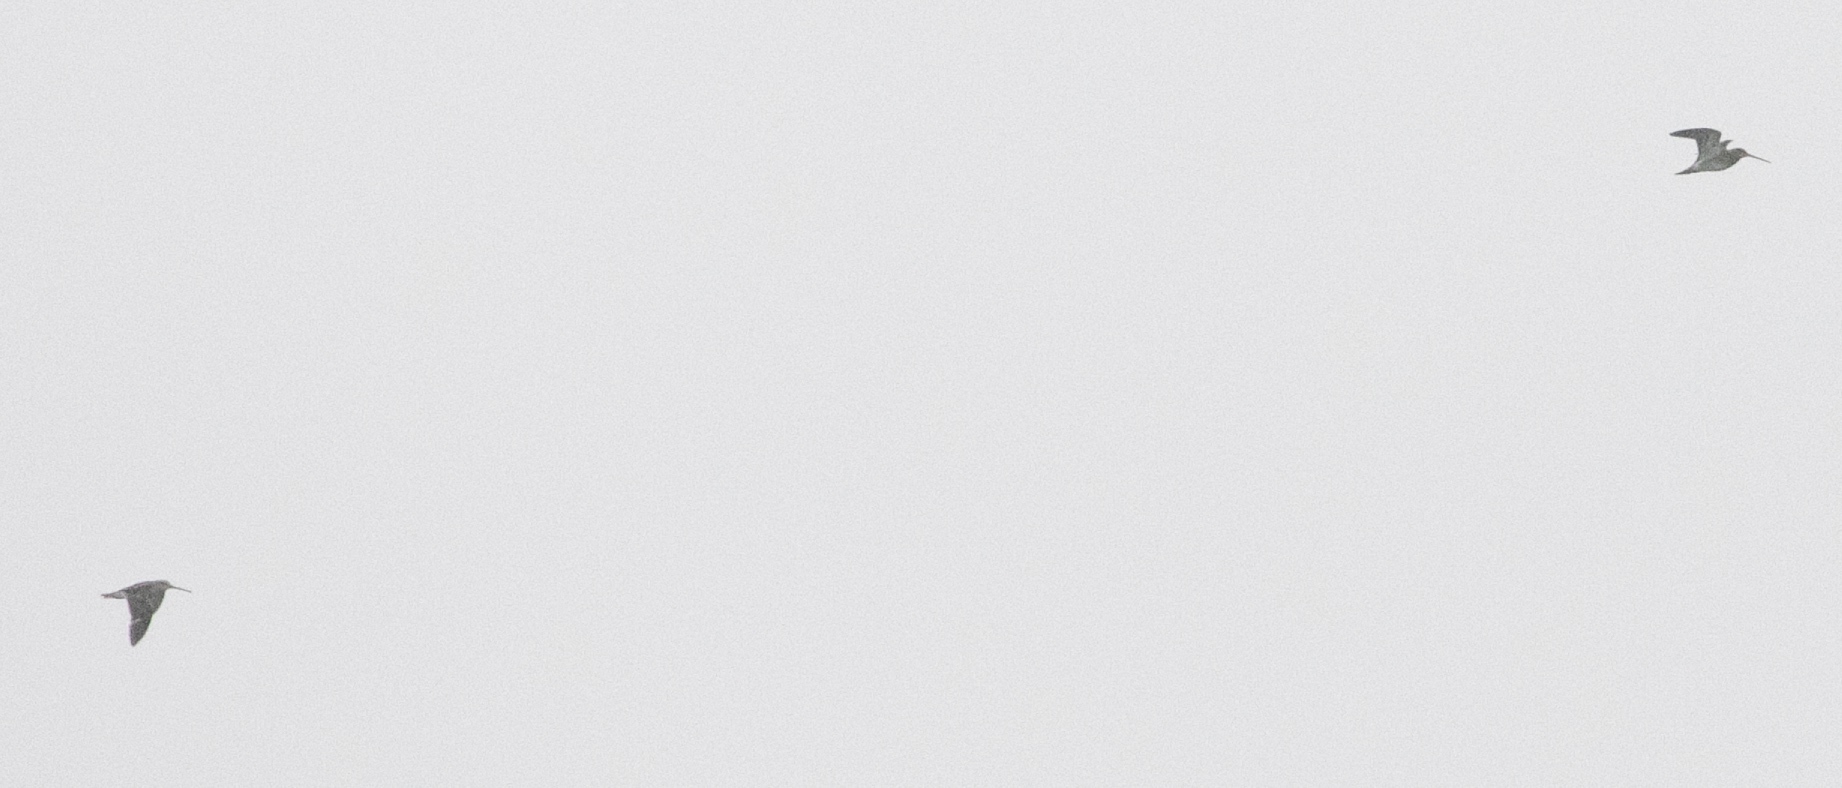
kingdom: Animalia
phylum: Chordata
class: Aves
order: Charadriiformes
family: Scolopacidae
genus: Gallinago
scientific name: Gallinago gallinago
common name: Common snipe
